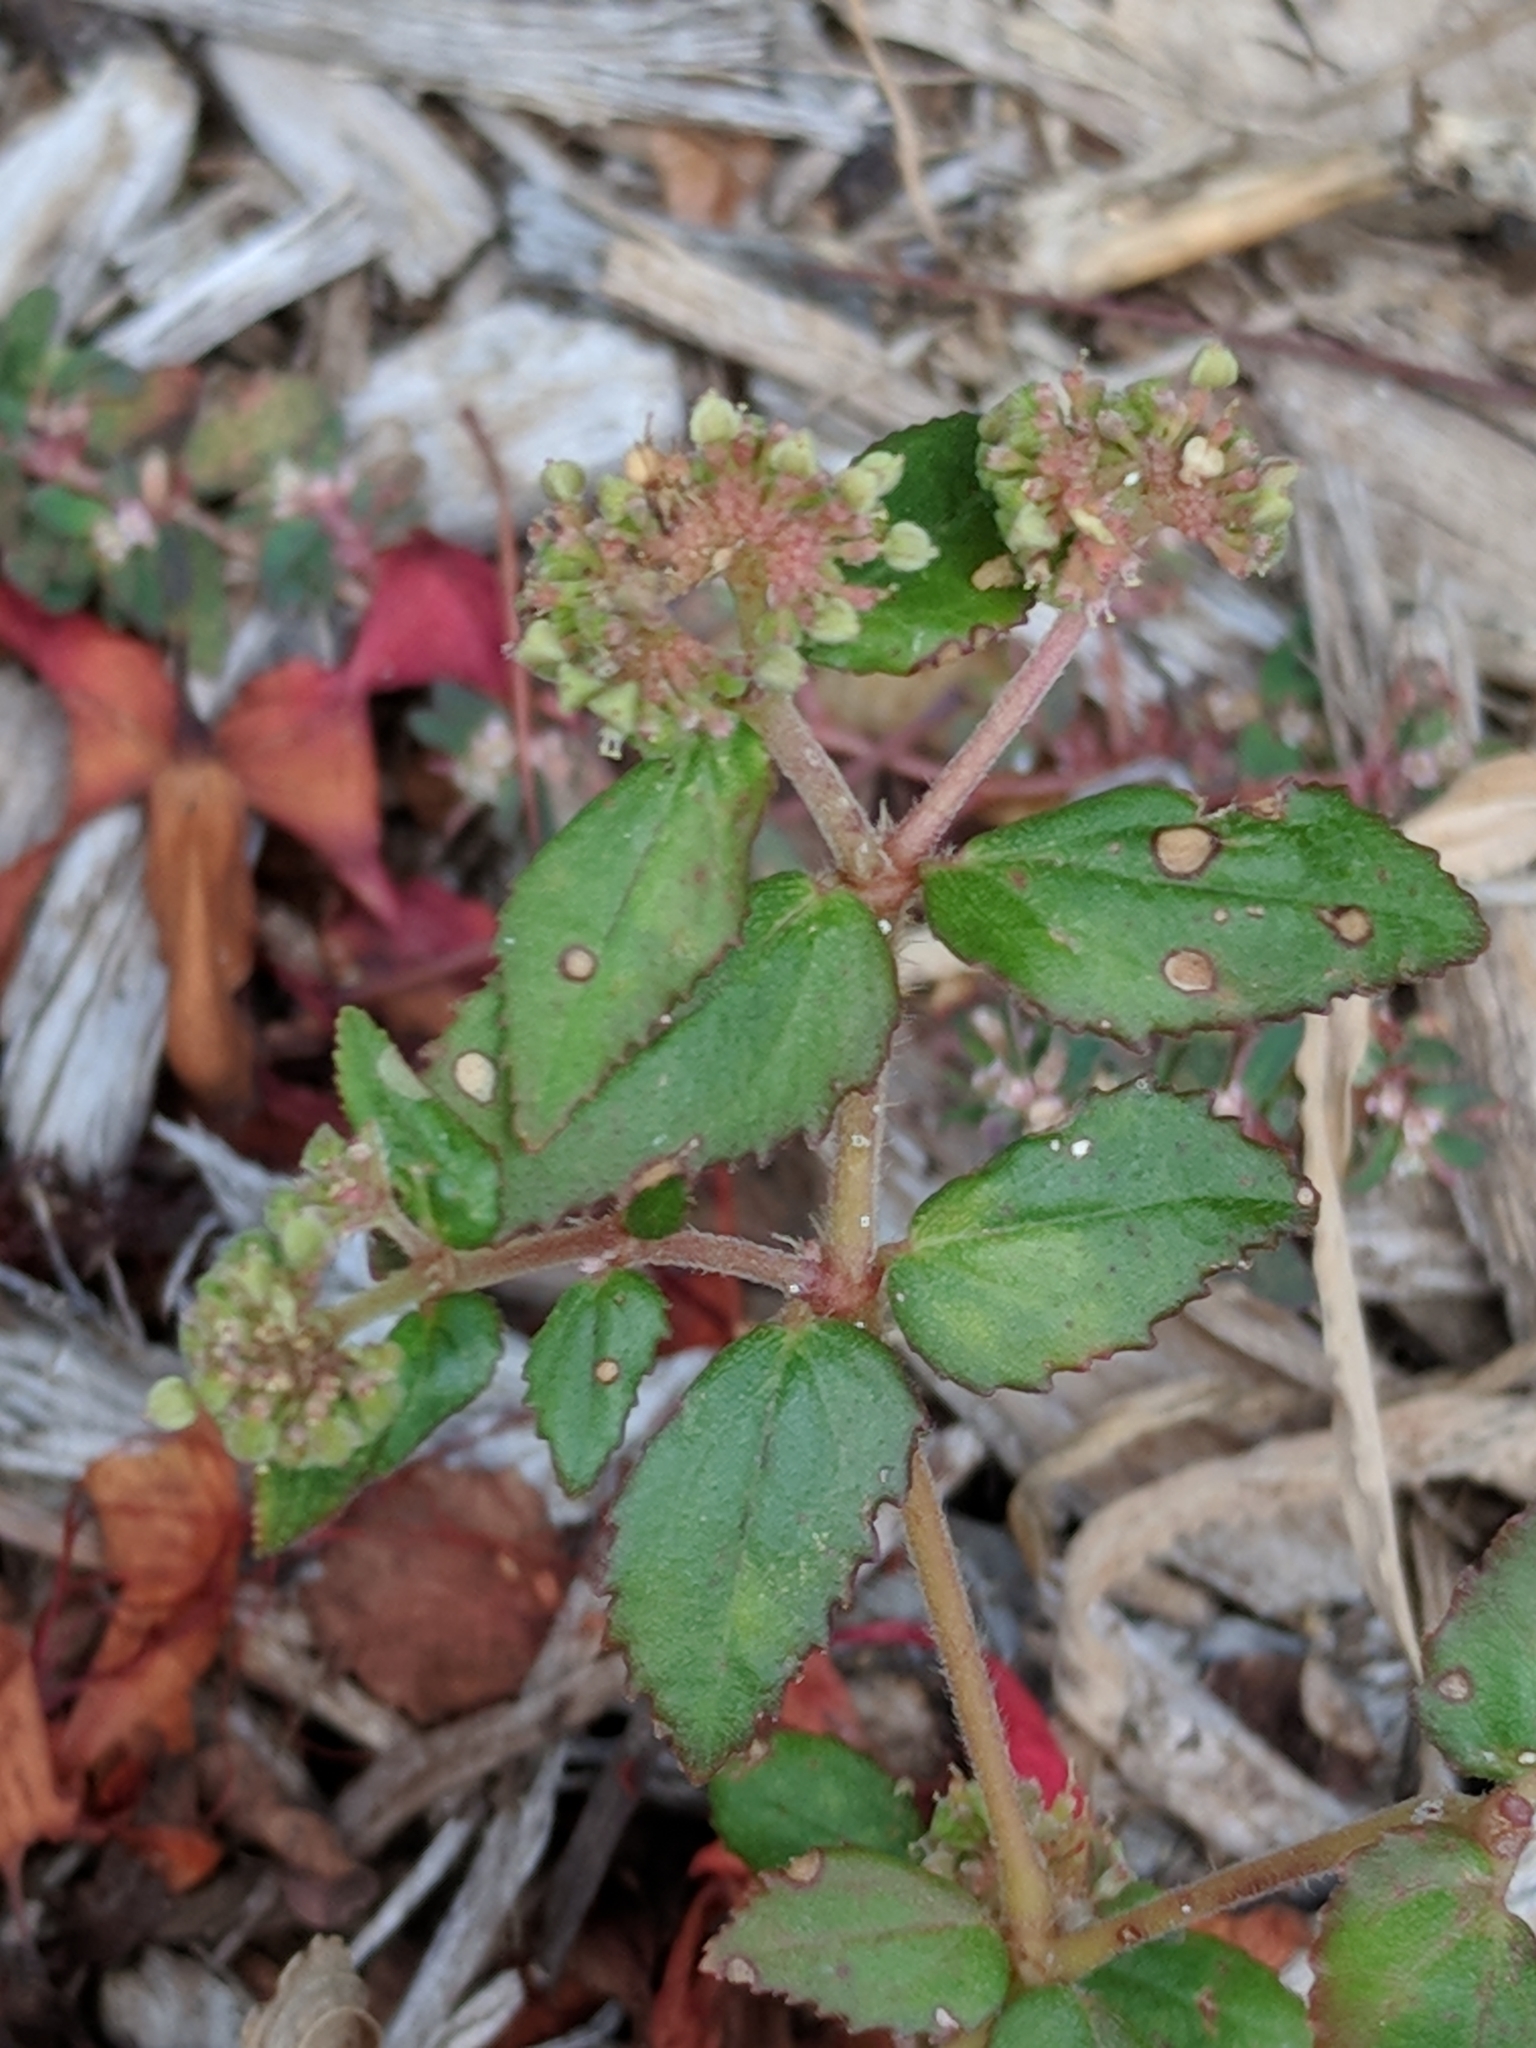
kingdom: Plantae
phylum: Tracheophyta
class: Magnoliopsida
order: Malpighiales
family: Euphorbiaceae
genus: Euphorbia
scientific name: Euphorbia ophthalmica
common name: Florida hammock sandmat
